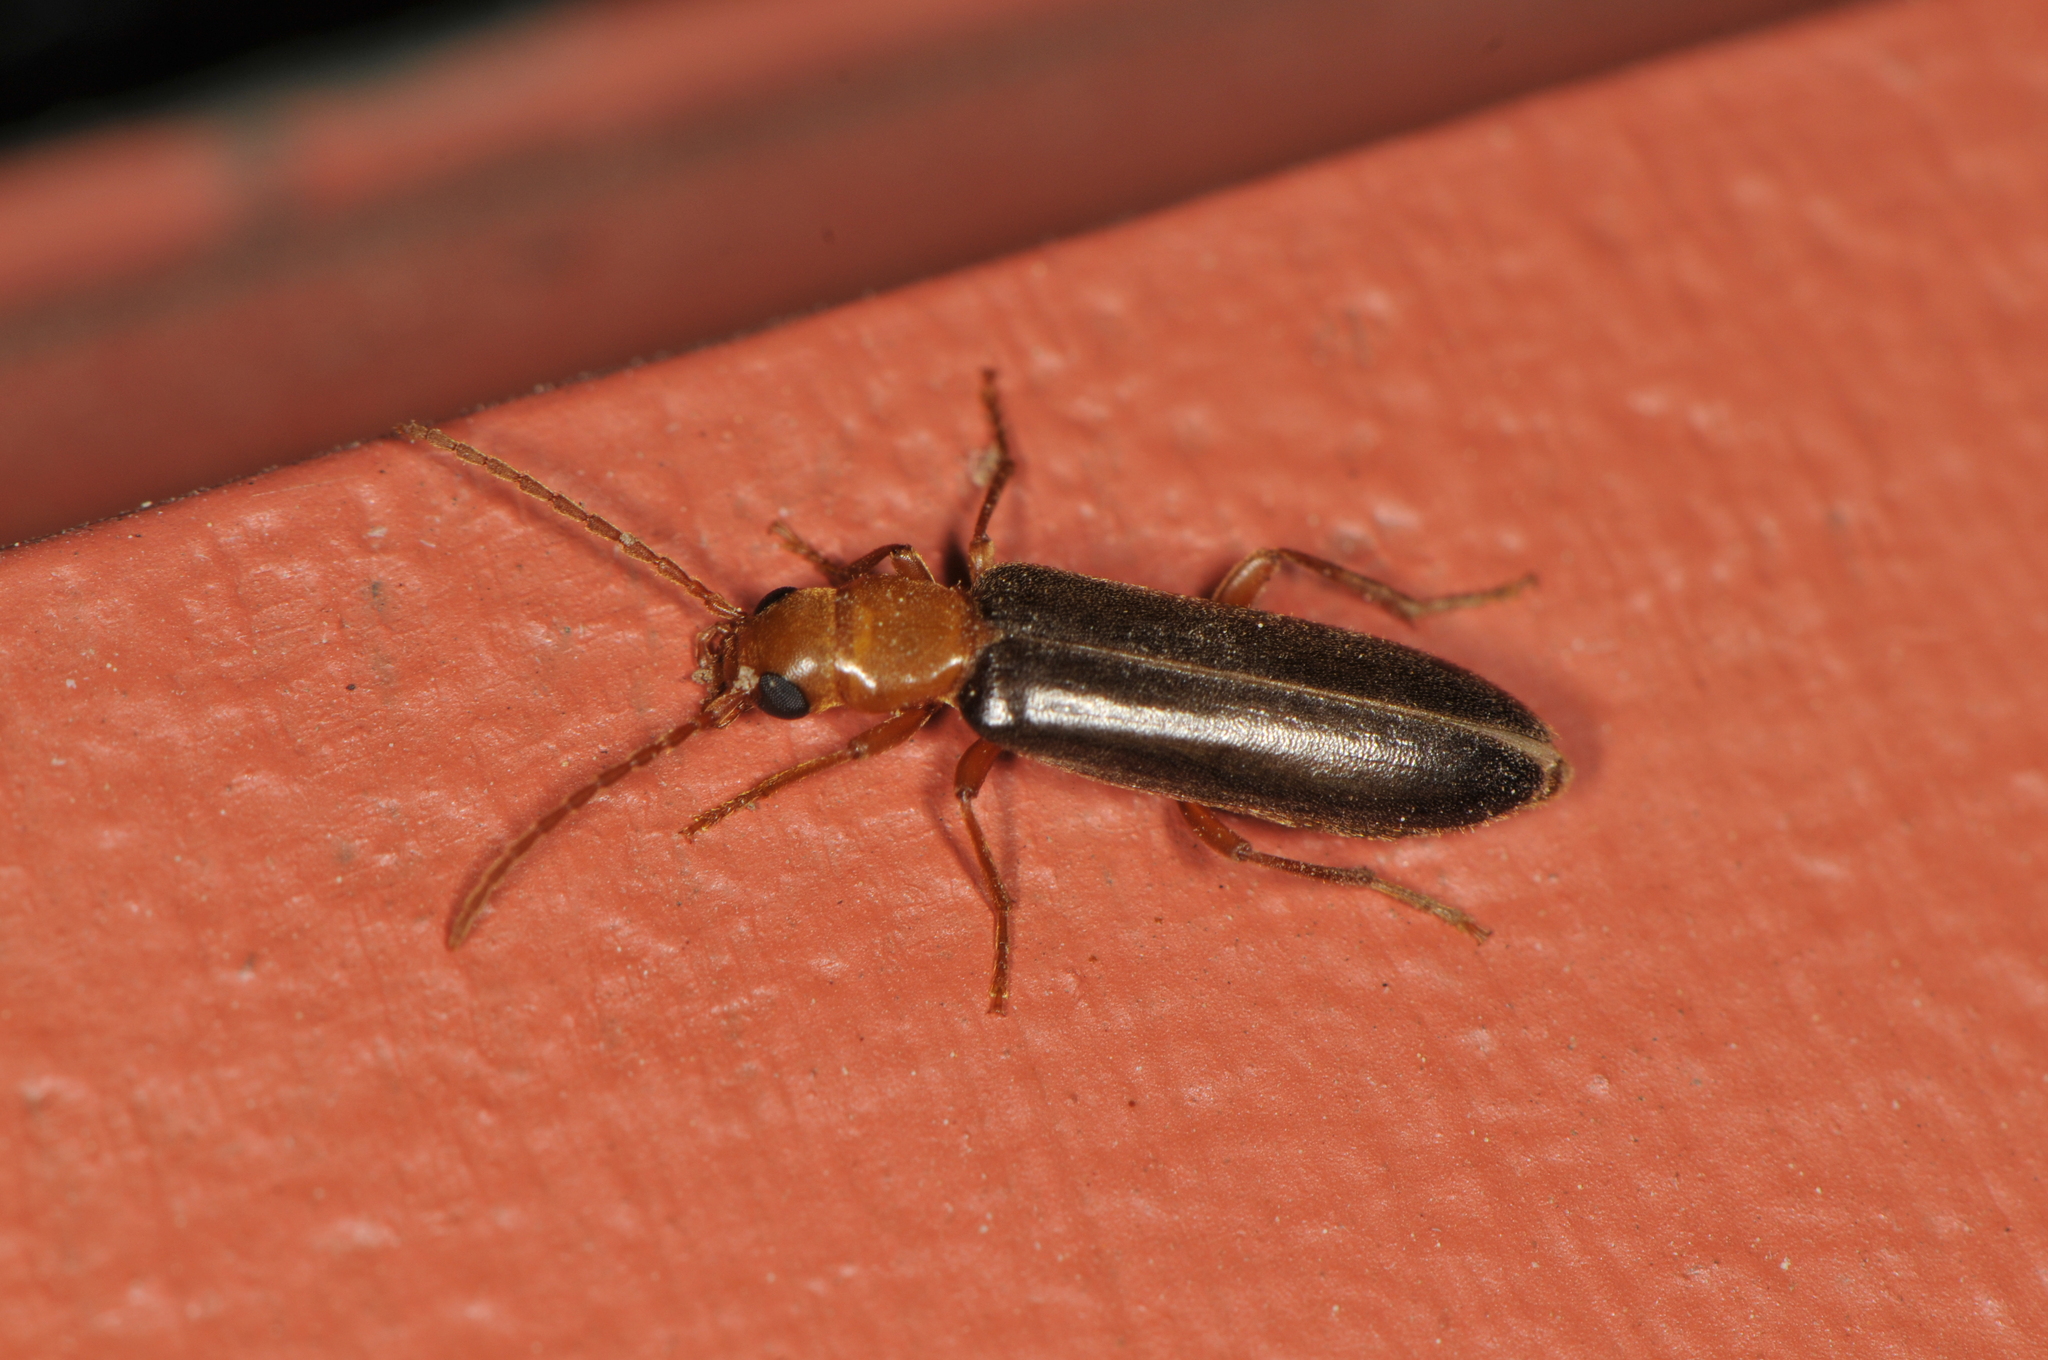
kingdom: Animalia
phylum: Arthropoda
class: Insecta
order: Coleoptera
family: Oedemeridae
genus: Xanthochroina
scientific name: Xanthochroina bicolor
